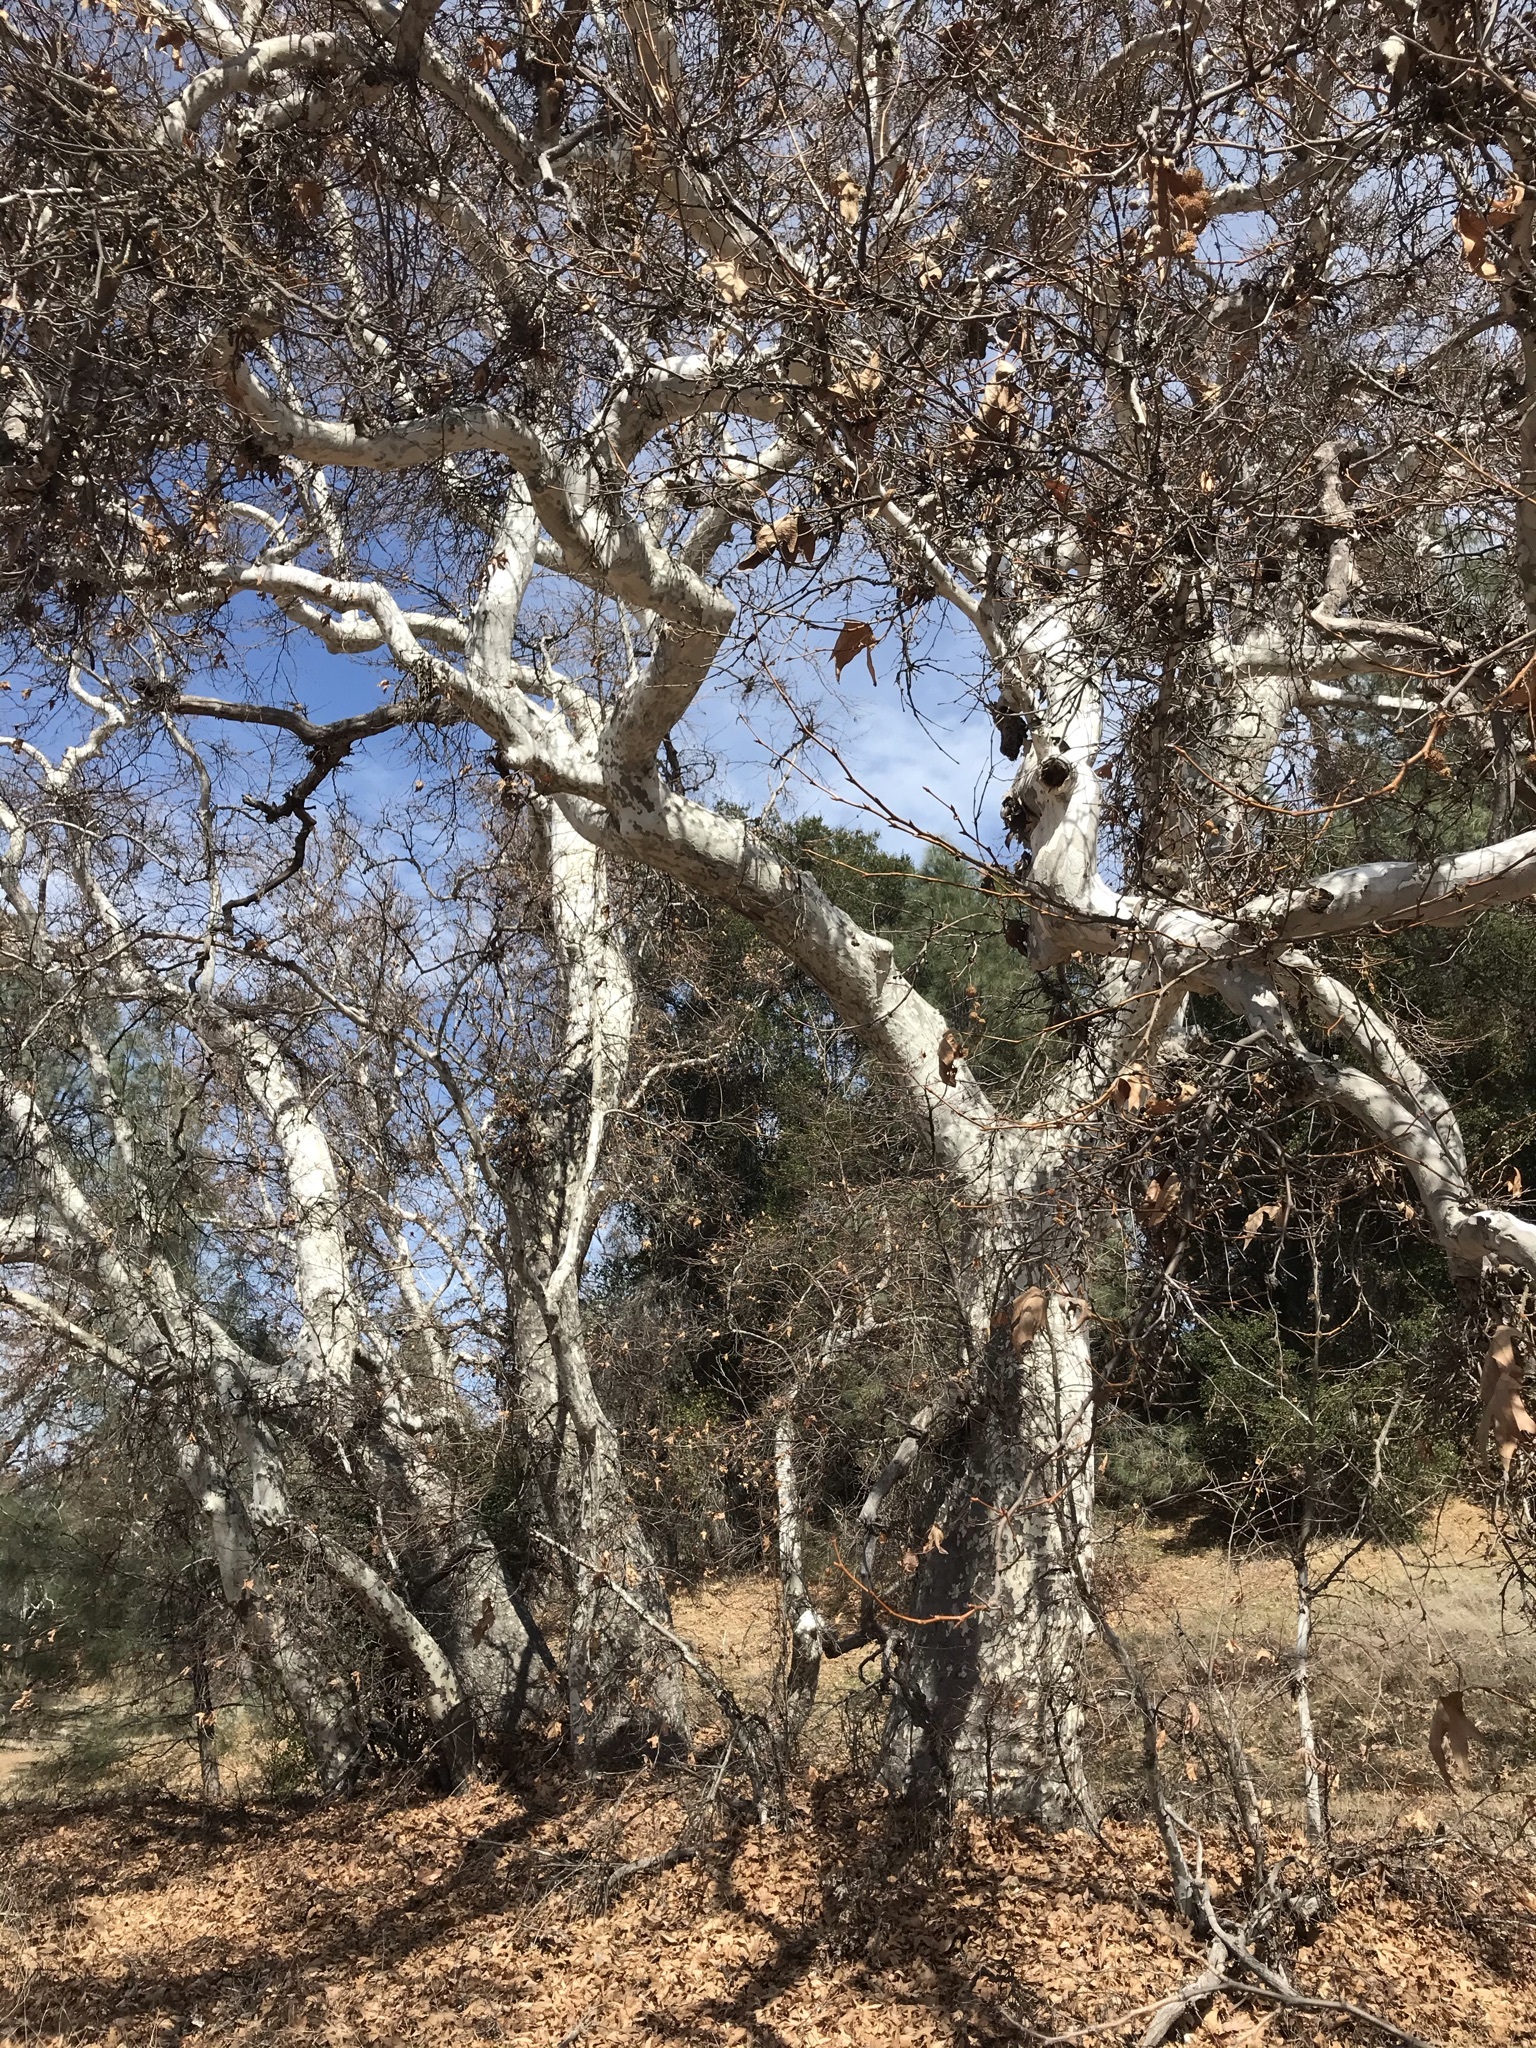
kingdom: Plantae
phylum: Tracheophyta
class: Magnoliopsida
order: Proteales
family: Platanaceae
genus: Platanus
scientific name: Platanus racemosa
